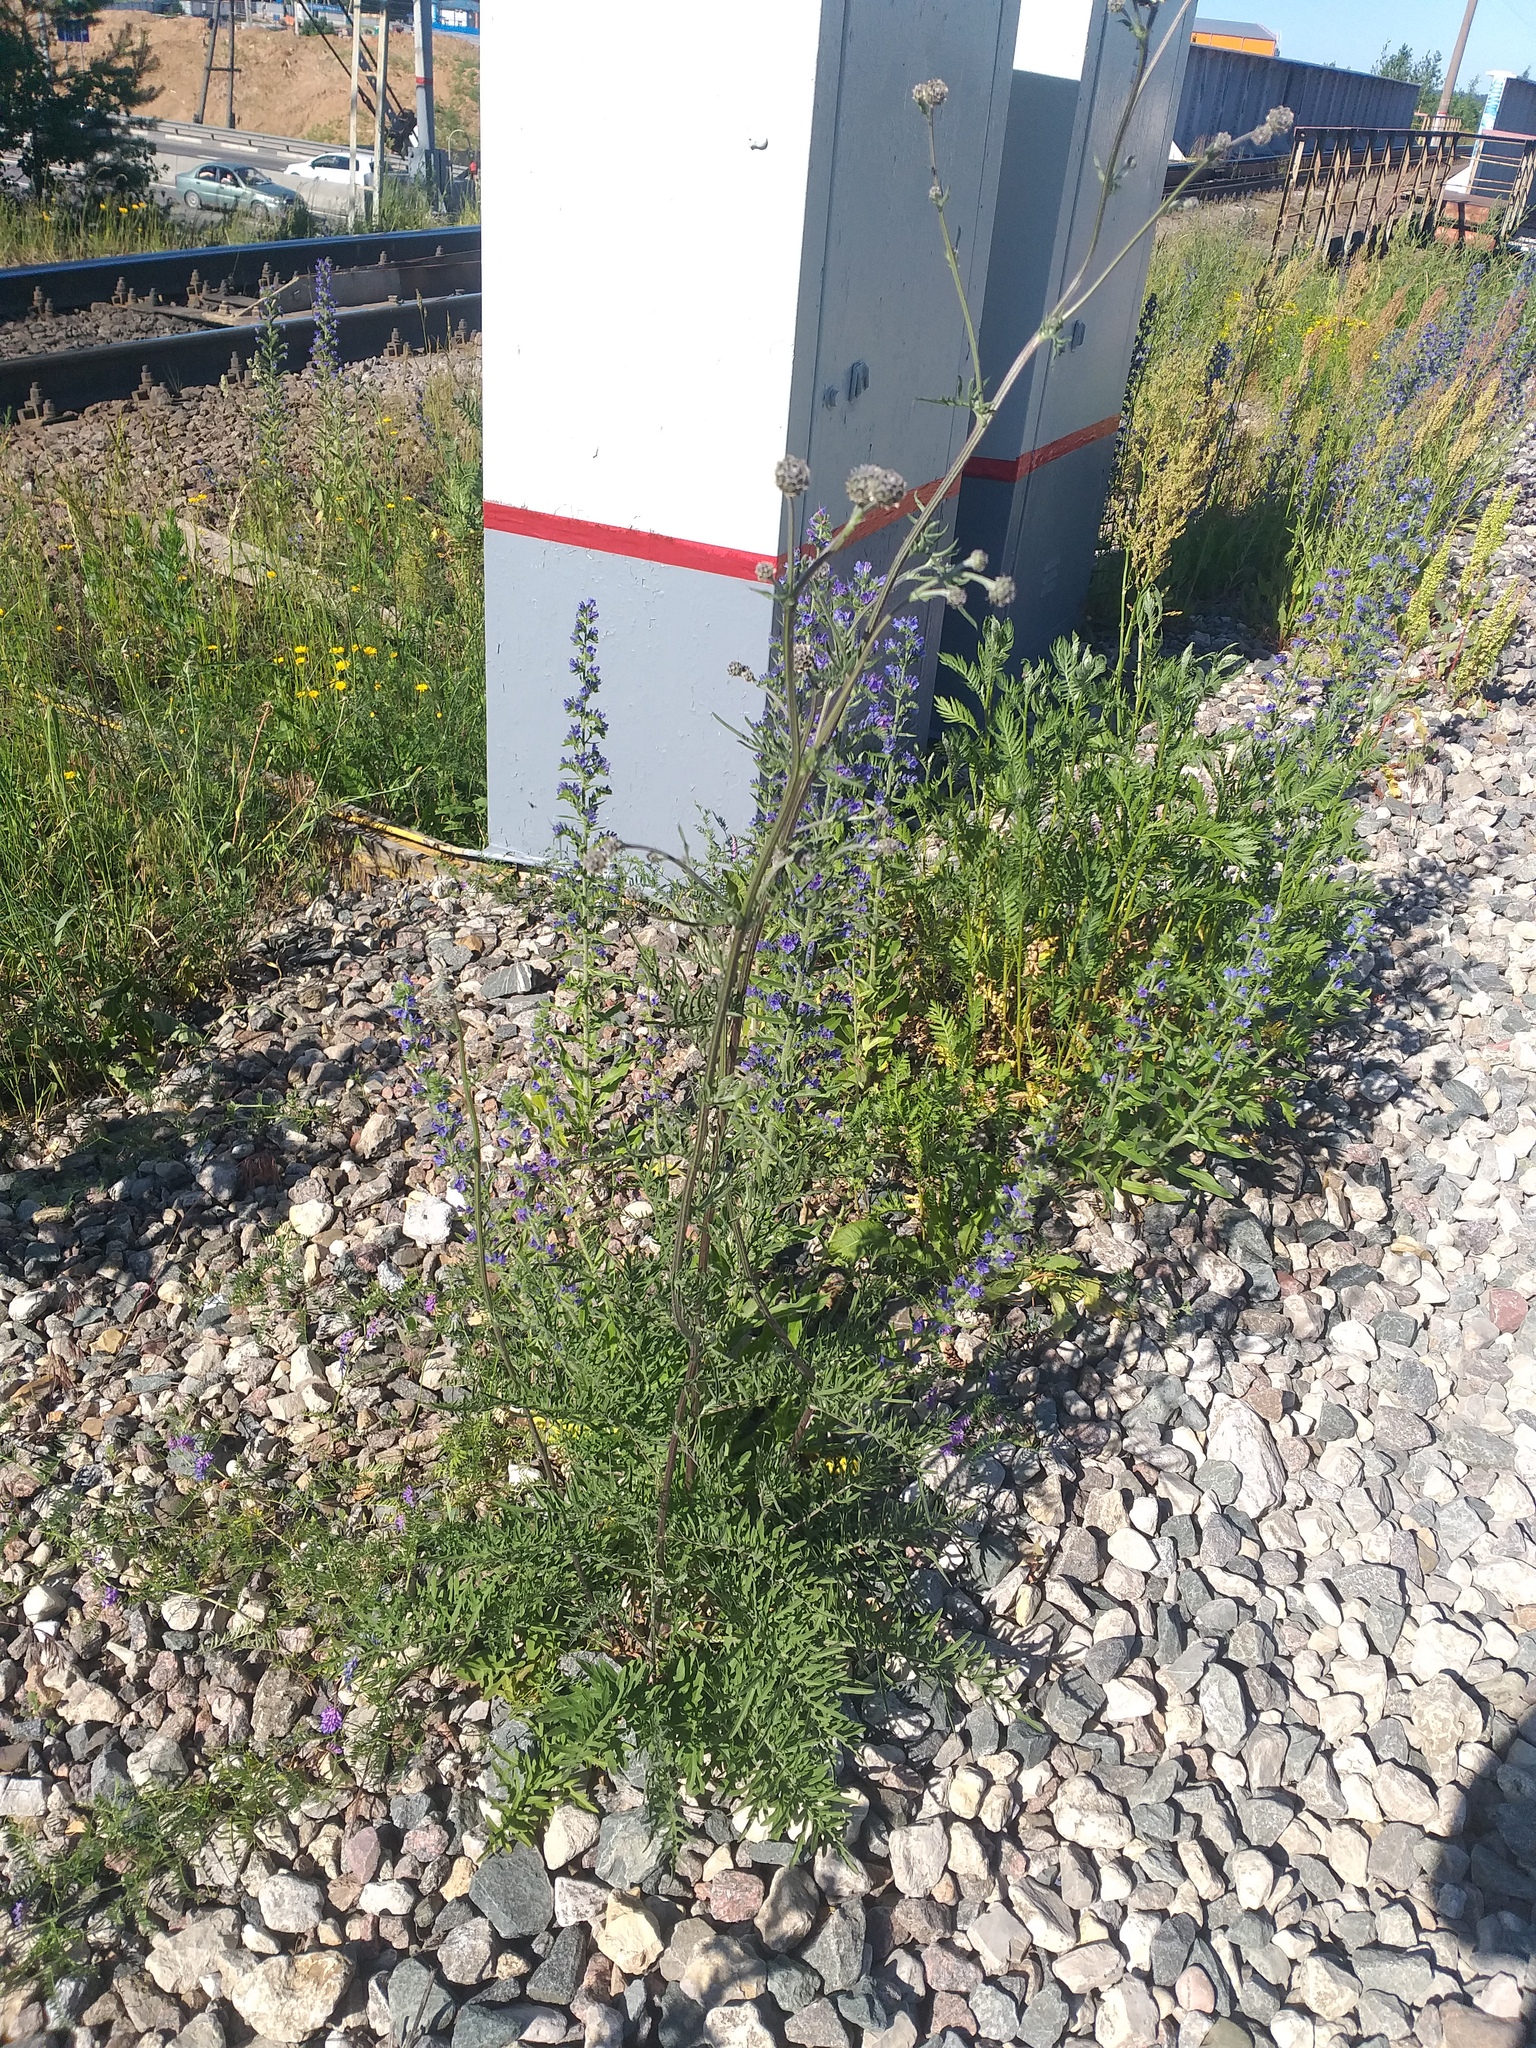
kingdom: Plantae
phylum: Tracheophyta
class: Magnoliopsida
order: Asterales
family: Asteraceae
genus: Centaurea
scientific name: Centaurea scabiosa
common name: Greater knapweed
